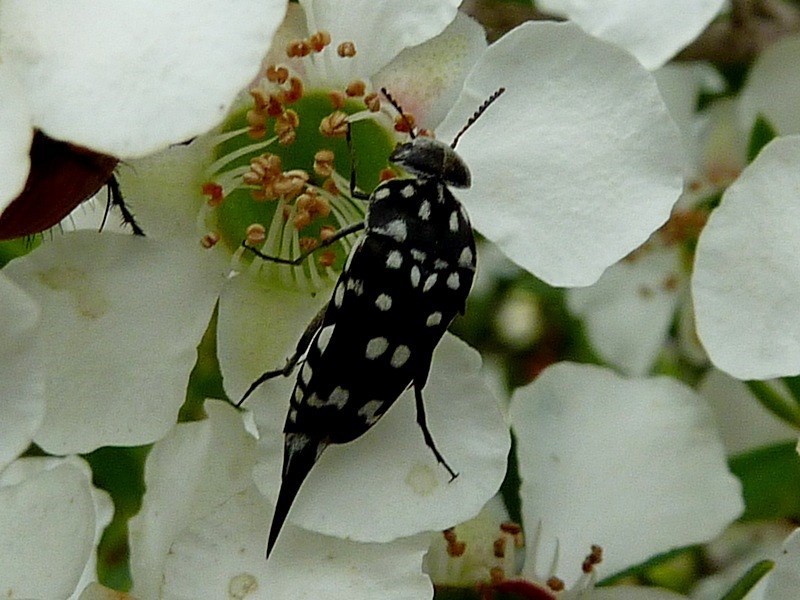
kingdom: Animalia
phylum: Arthropoda
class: Insecta
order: Coleoptera
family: Mordellidae
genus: Hoshihananomia
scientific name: Hoshihananomia
